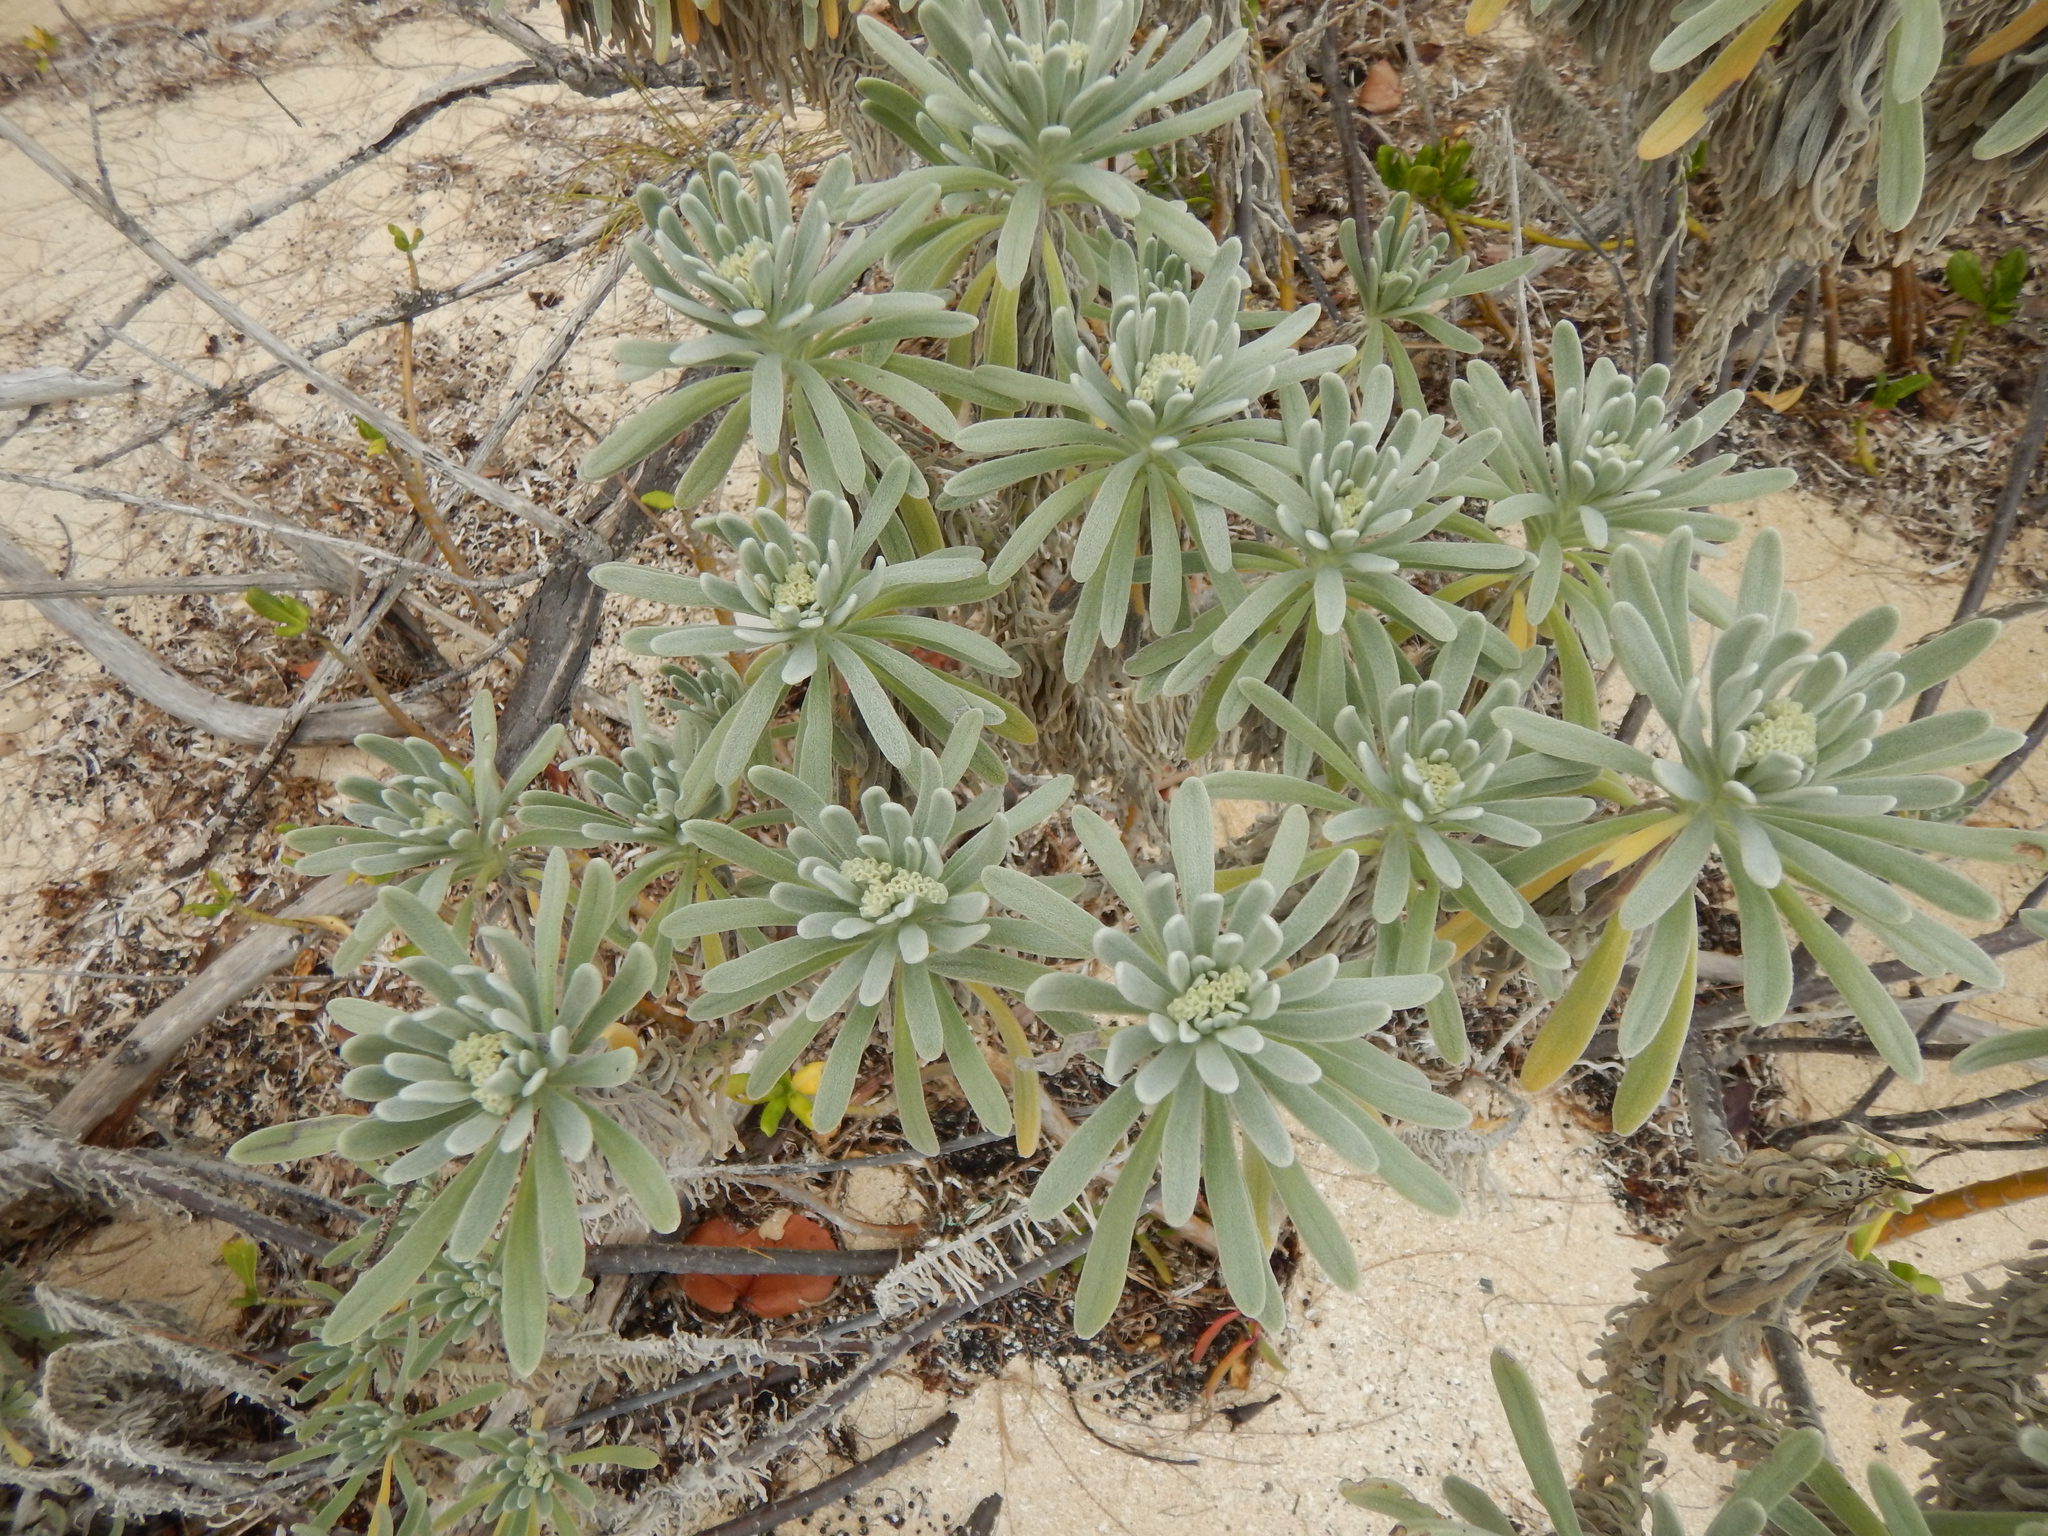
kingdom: Plantae
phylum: Tracheophyta
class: Magnoliopsida
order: Boraginales
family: Heliotropiaceae
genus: Tournefortia
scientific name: Tournefortia gnaphalodes
